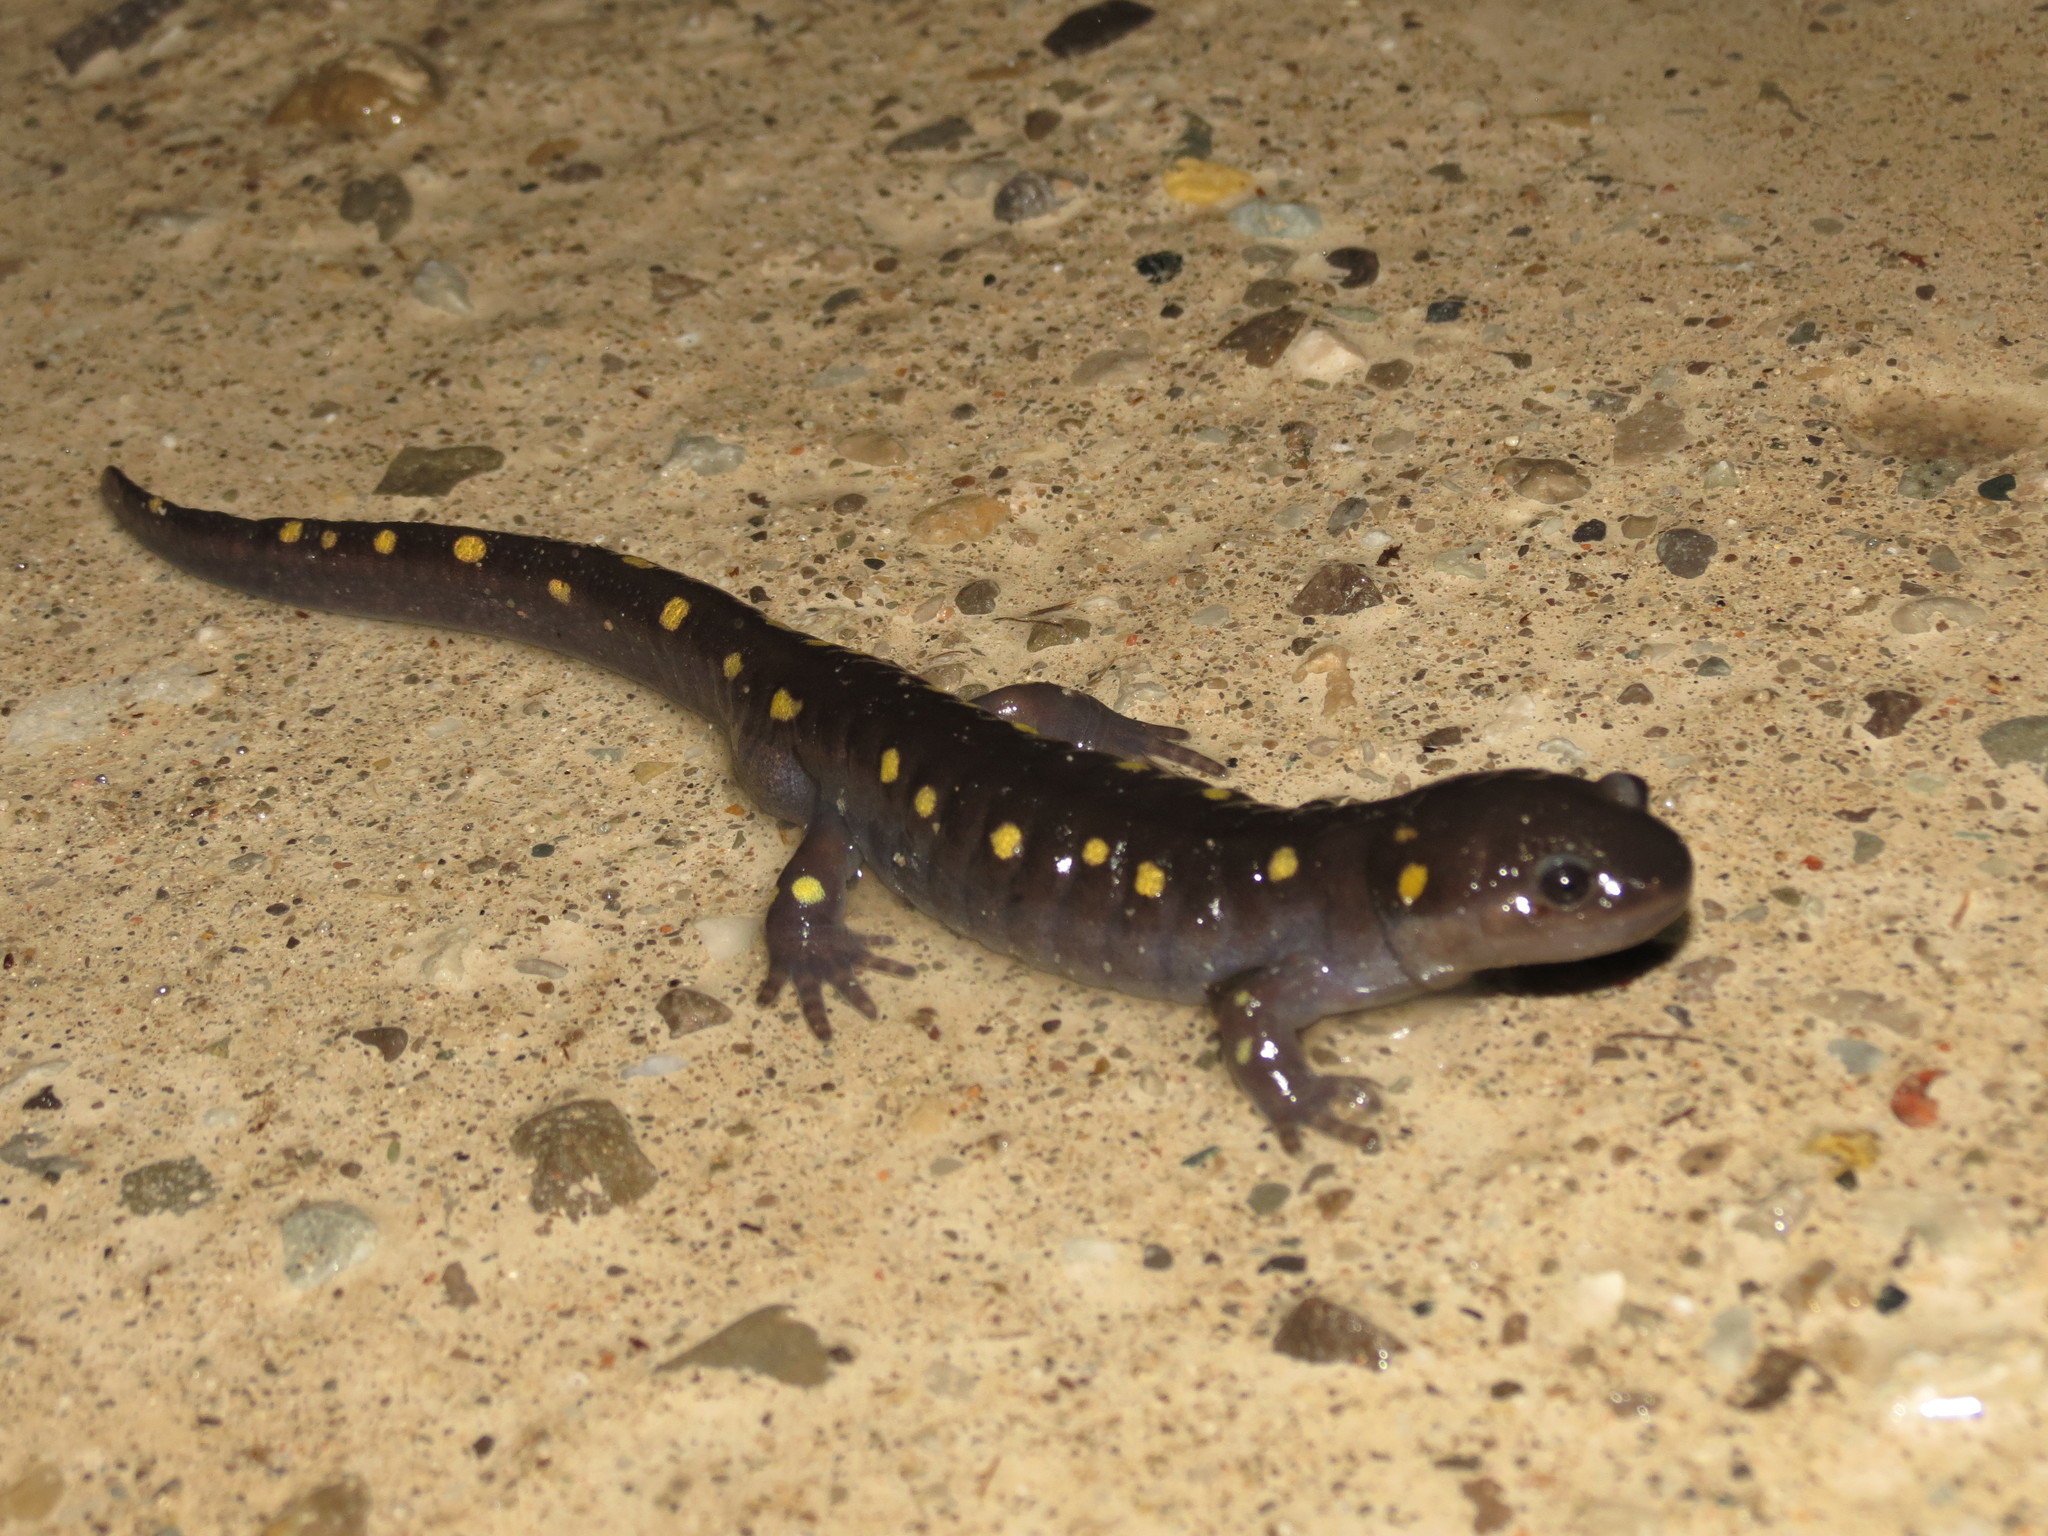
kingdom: Animalia
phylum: Chordata
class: Amphibia
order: Caudata
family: Ambystomatidae
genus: Ambystoma
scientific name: Ambystoma maculatum
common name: Spotted salamander
